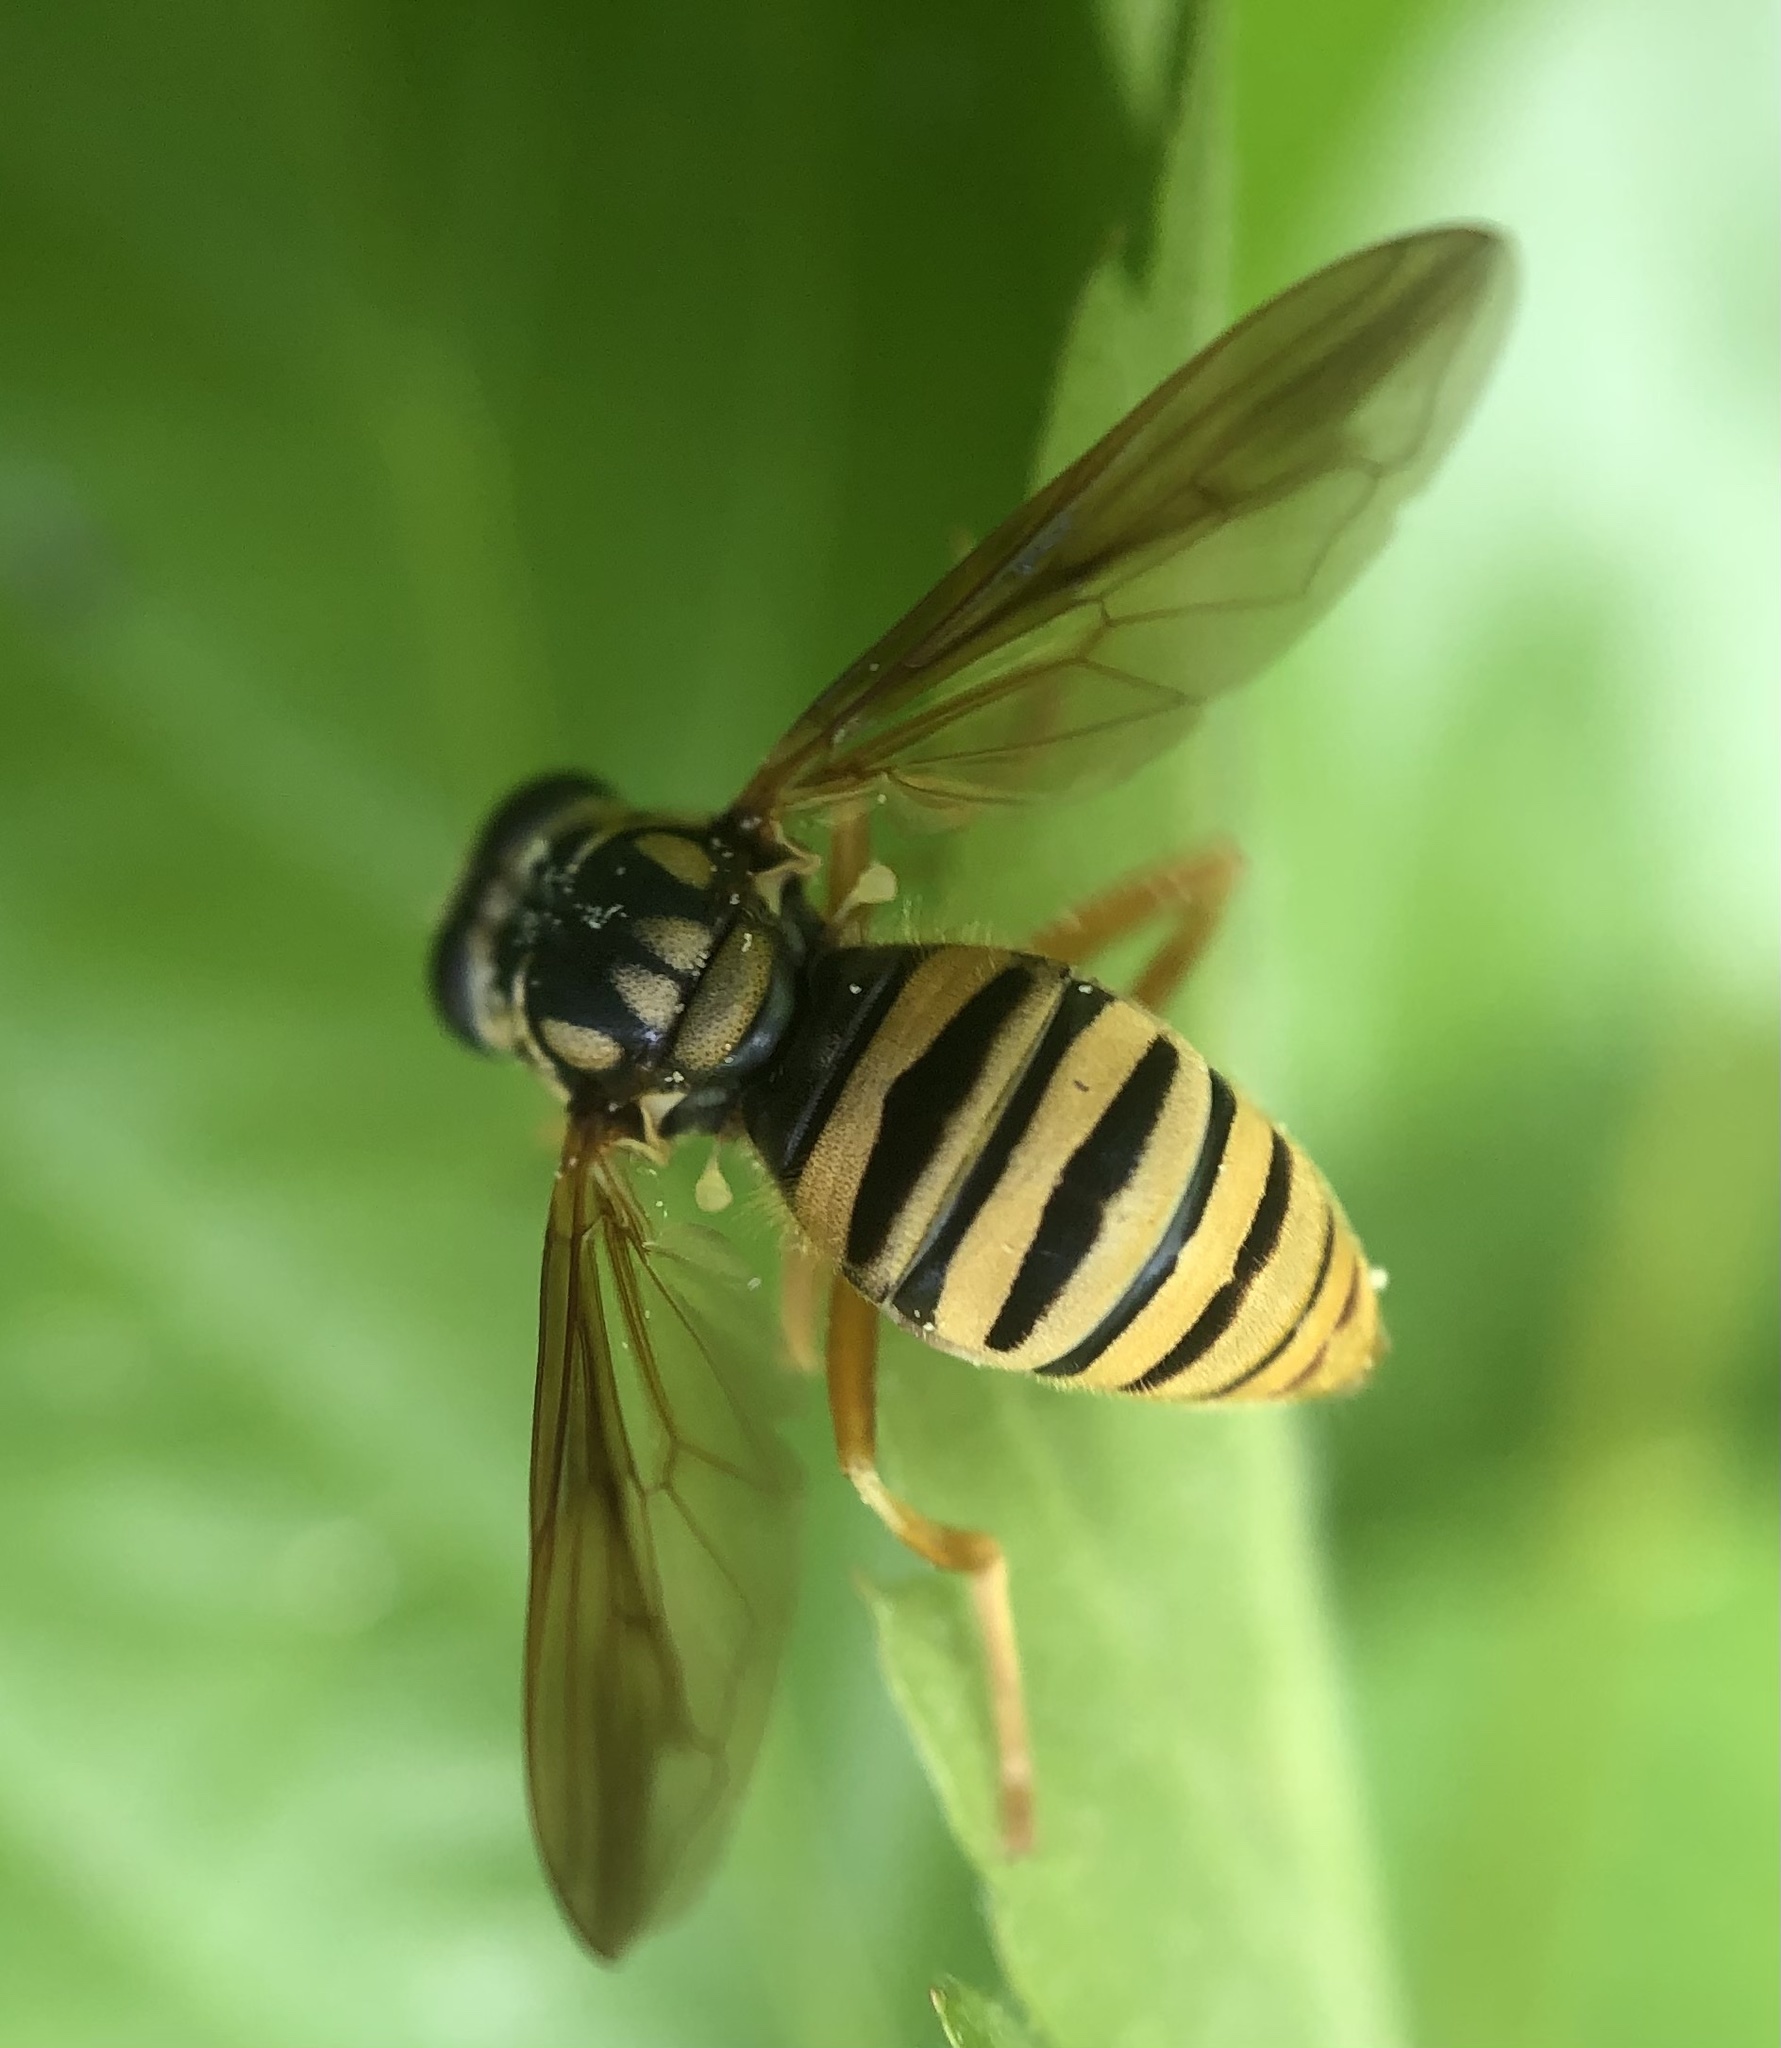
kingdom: Animalia
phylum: Arthropoda
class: Insecta
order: Diptera
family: Syrphidae
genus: Temnostoma
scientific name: Temnostoma daochum
